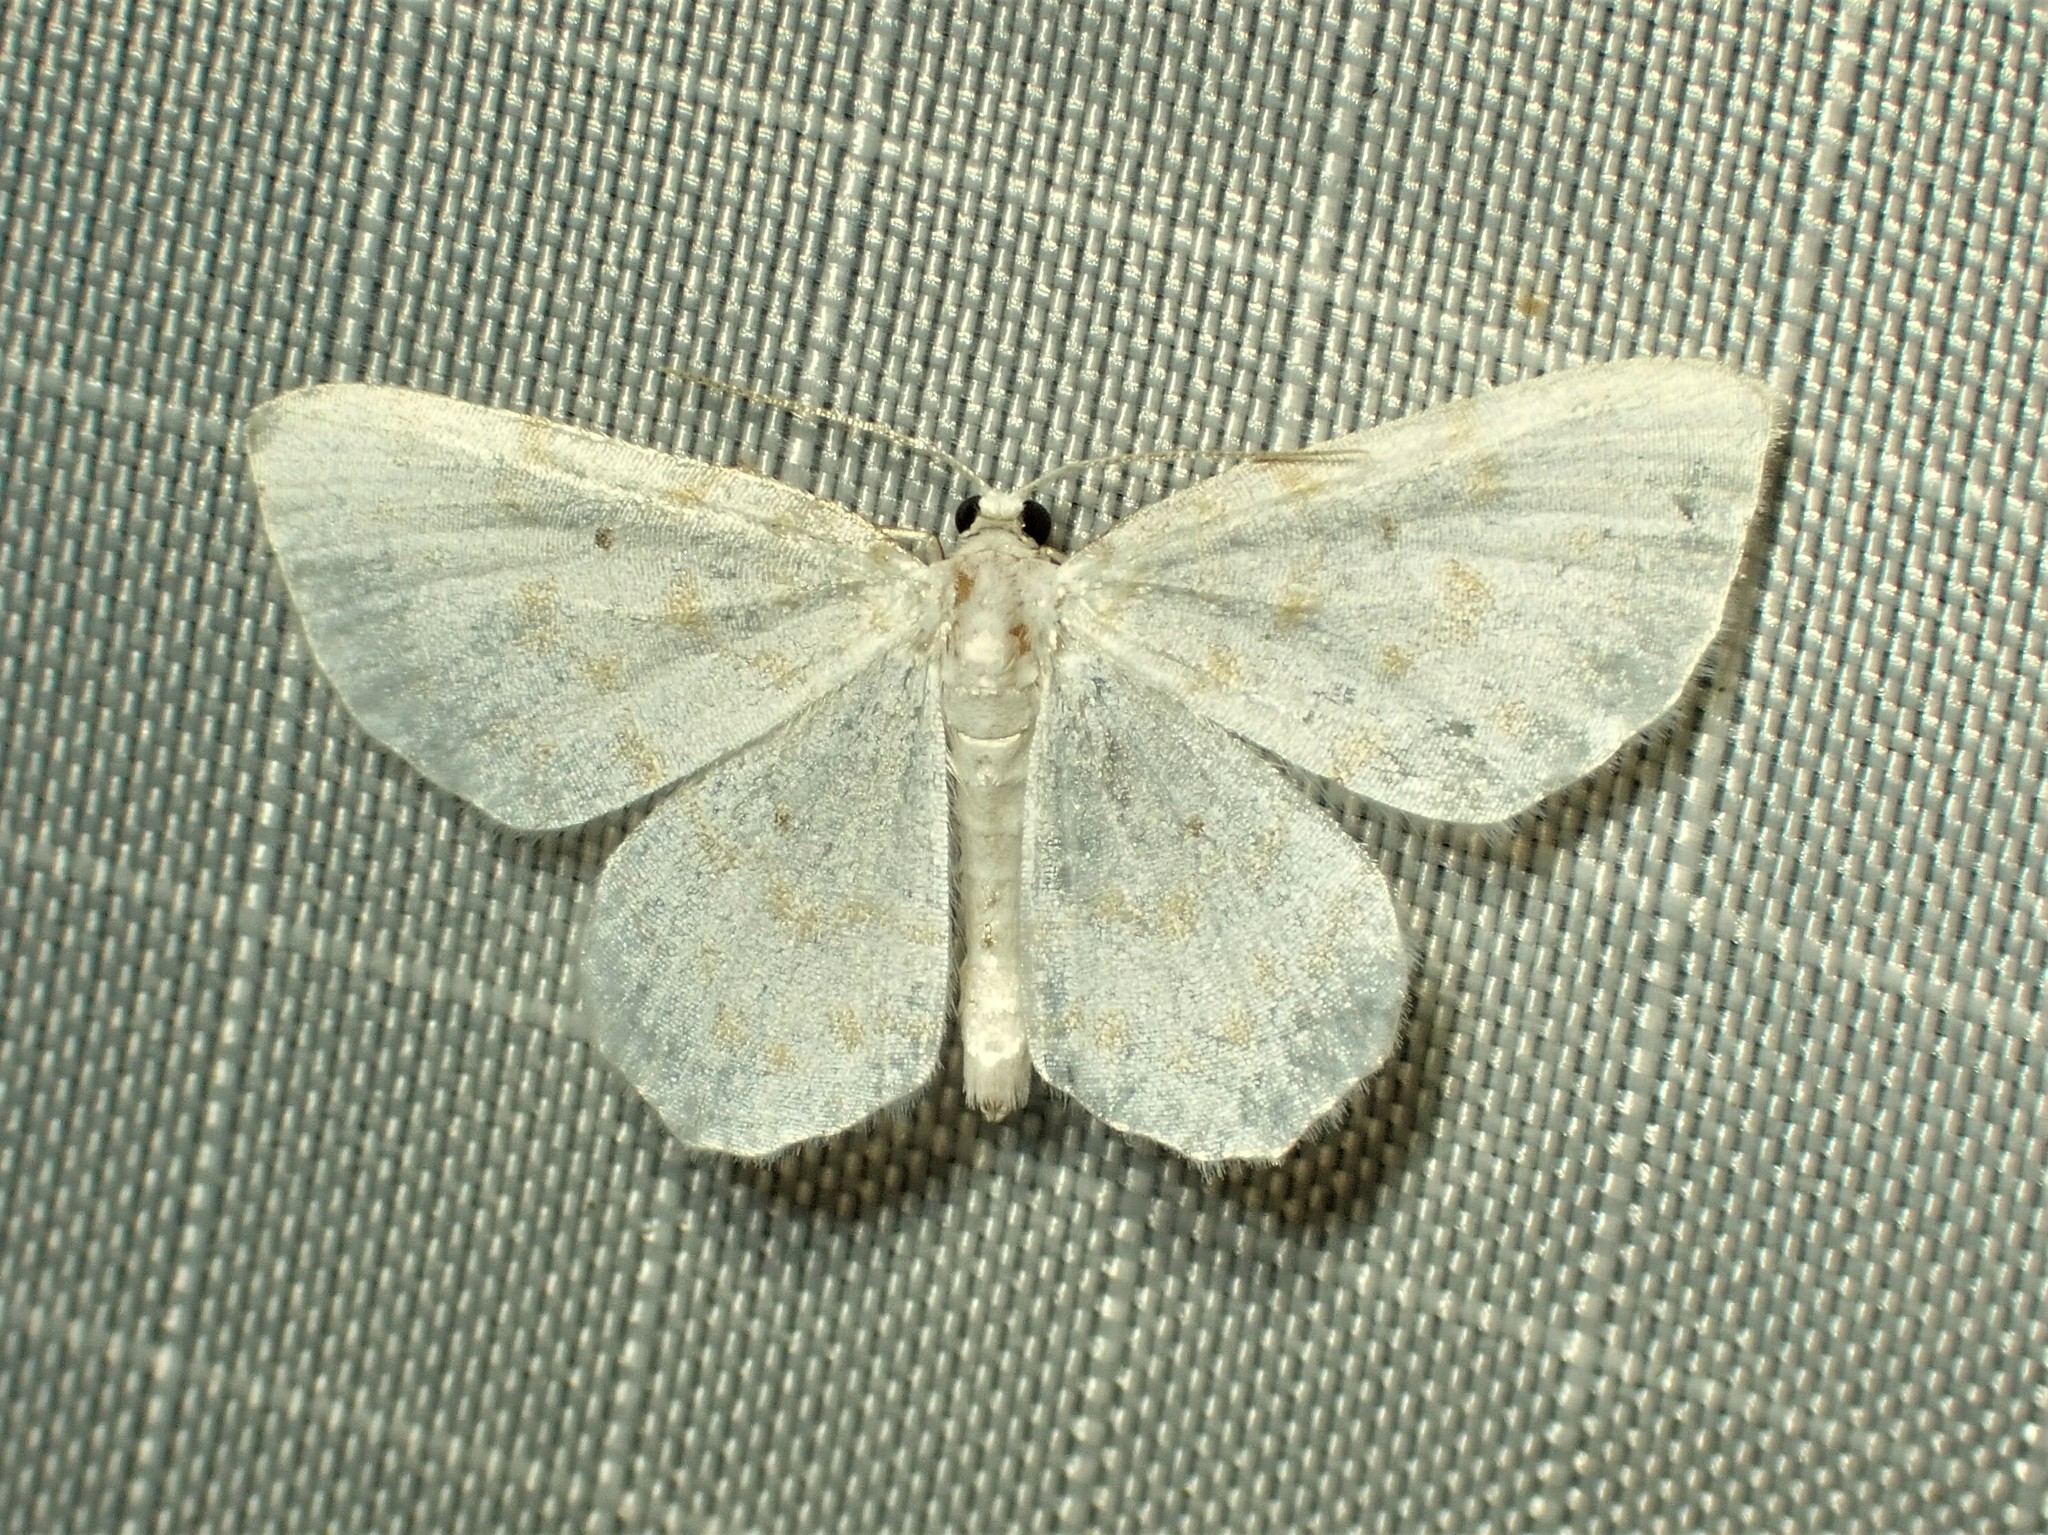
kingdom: Animalia
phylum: Arthropoda
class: Insecta
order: Lepidoptera
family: Geometridae
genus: Hydrelia
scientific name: Hydrelia albifera
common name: Fragile white carpet
